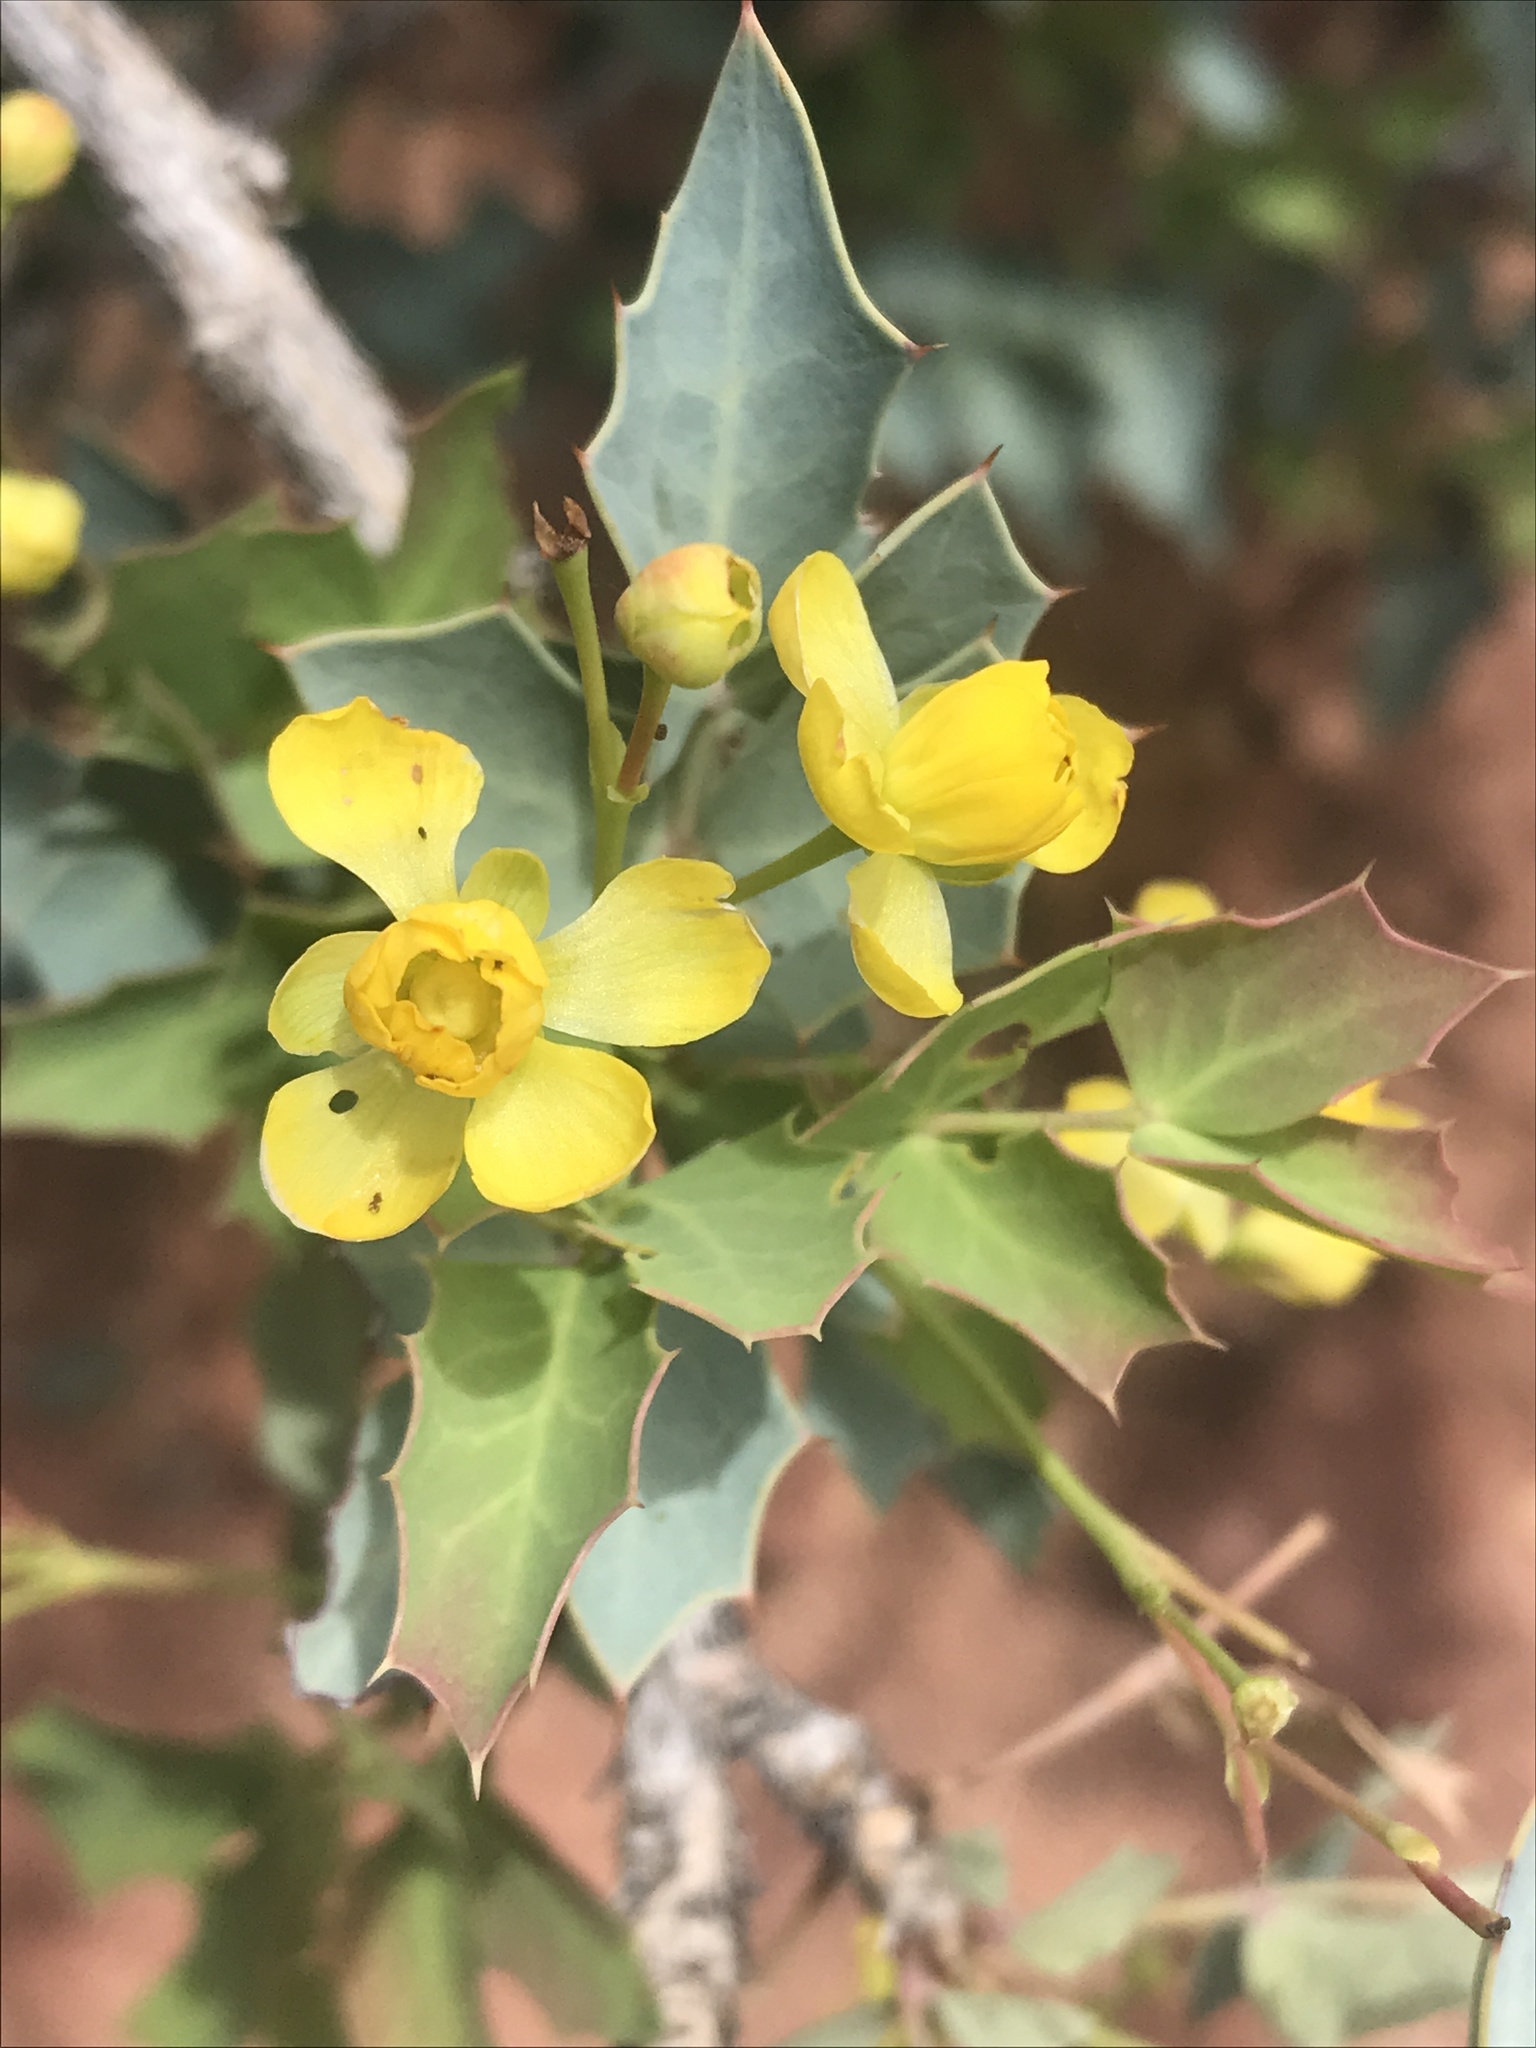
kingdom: Plantae
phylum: Tracheophyta
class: Magnoliopsida
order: Ranunculales
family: Berberidaceae
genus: Alloberberis
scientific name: Alloberberis fremontii
